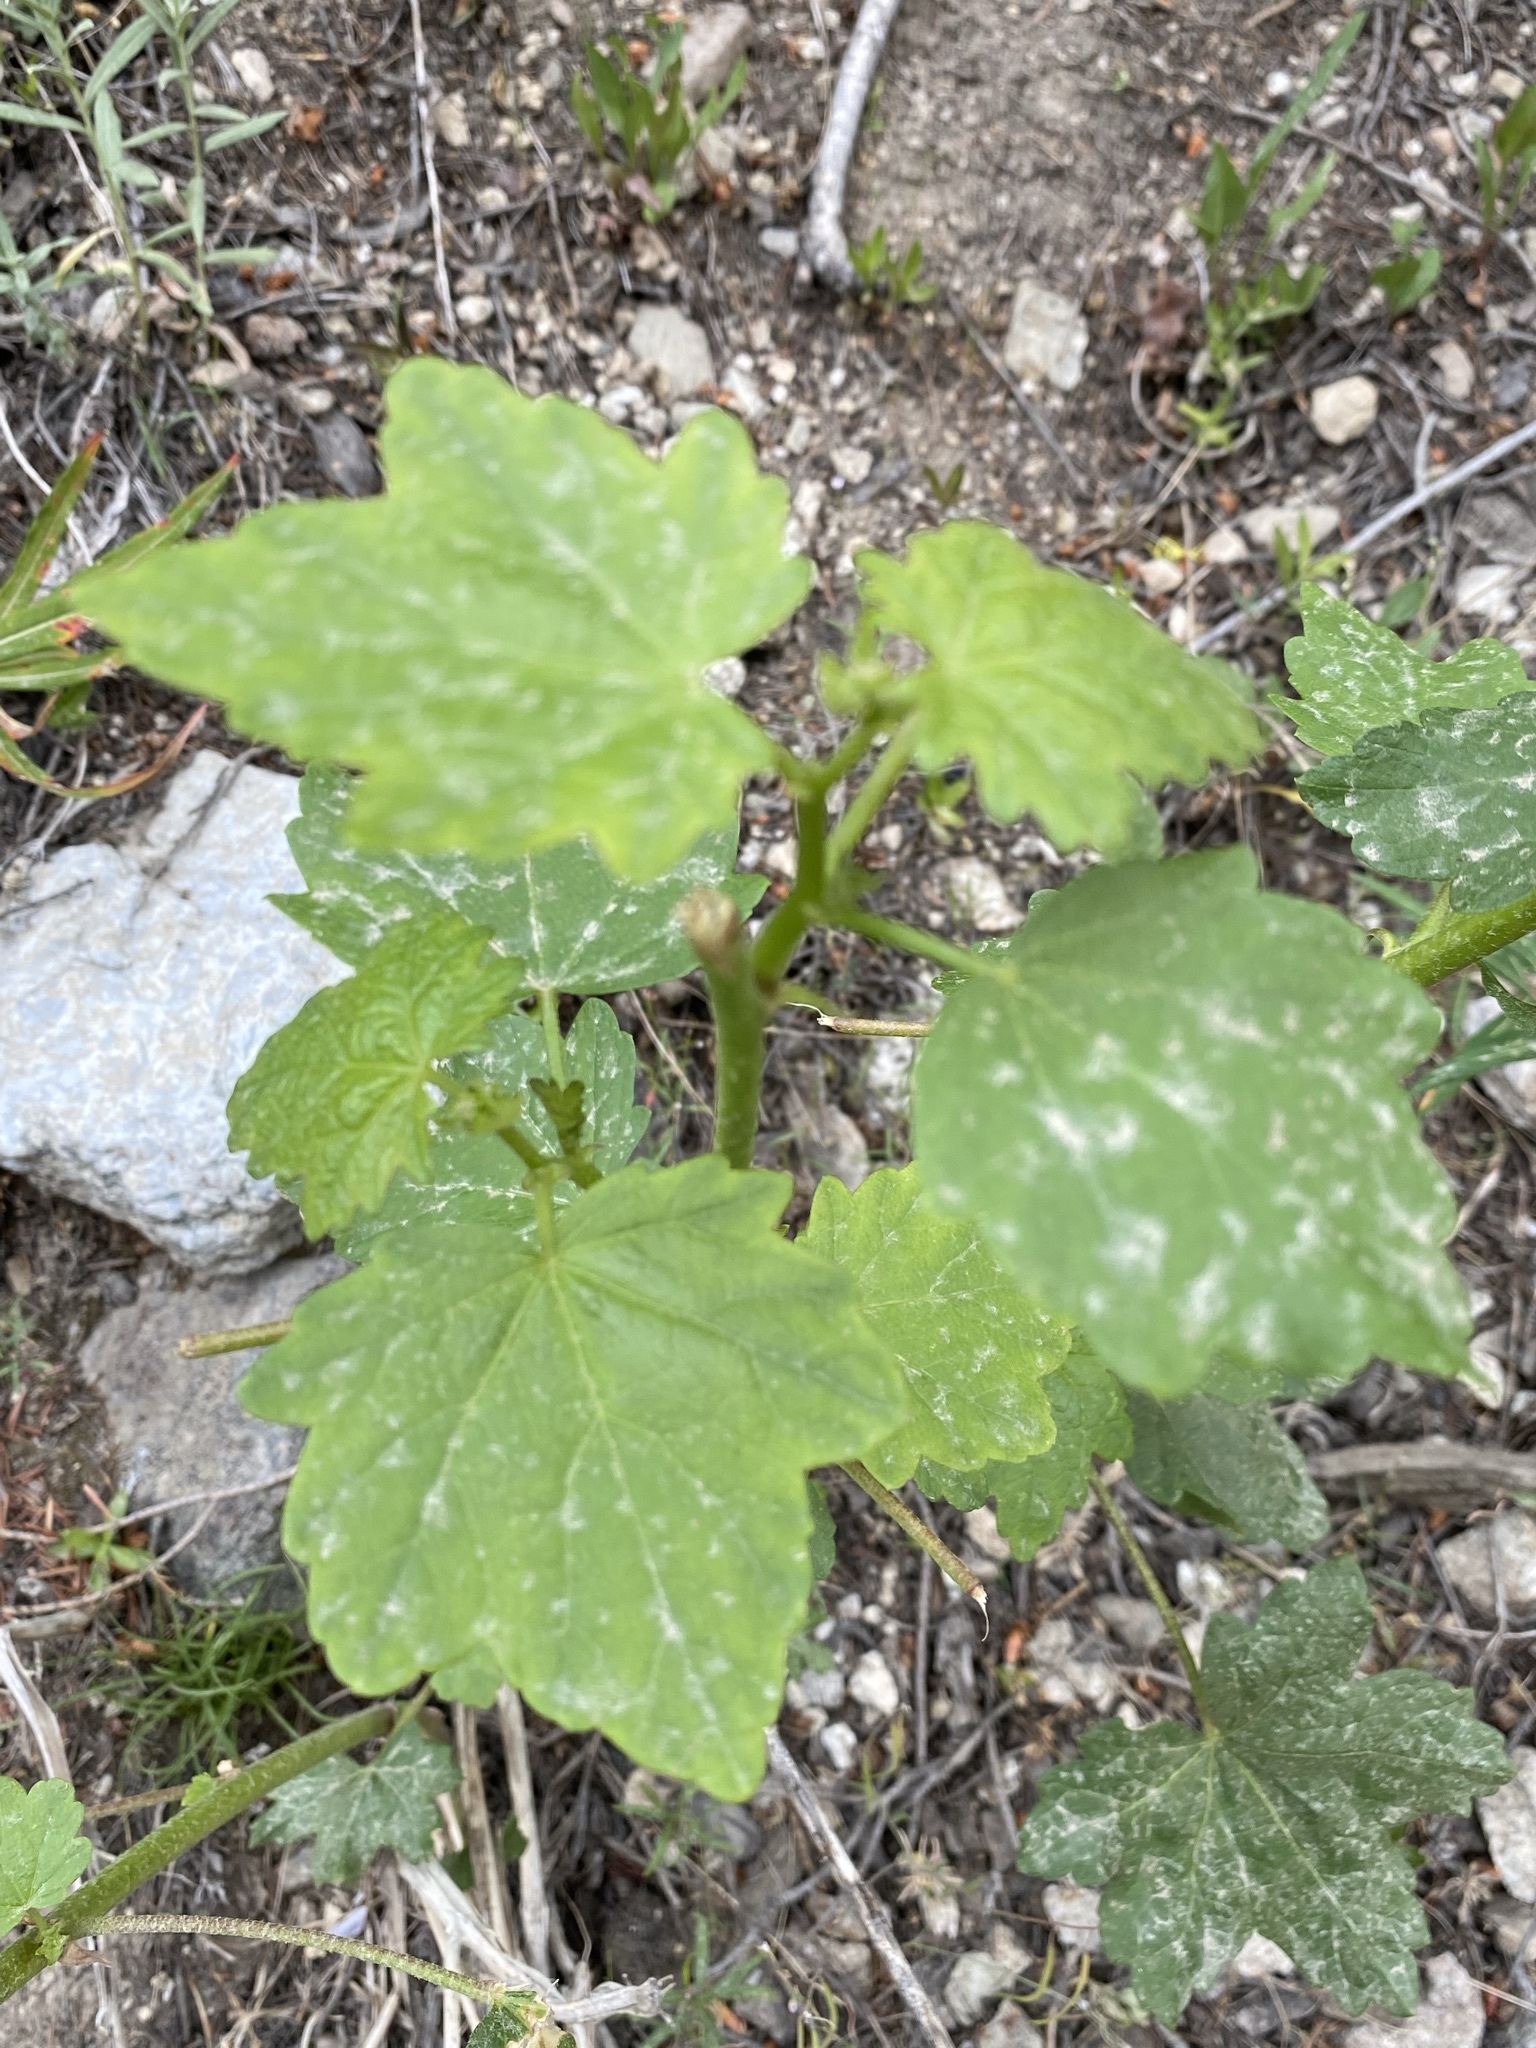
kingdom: Plantae
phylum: Tracheophyta
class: Magnoliopsida
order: Malvales
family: Malvaceae
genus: Iliamna
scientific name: Iliamna rivularis
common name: Wild hollyhock
